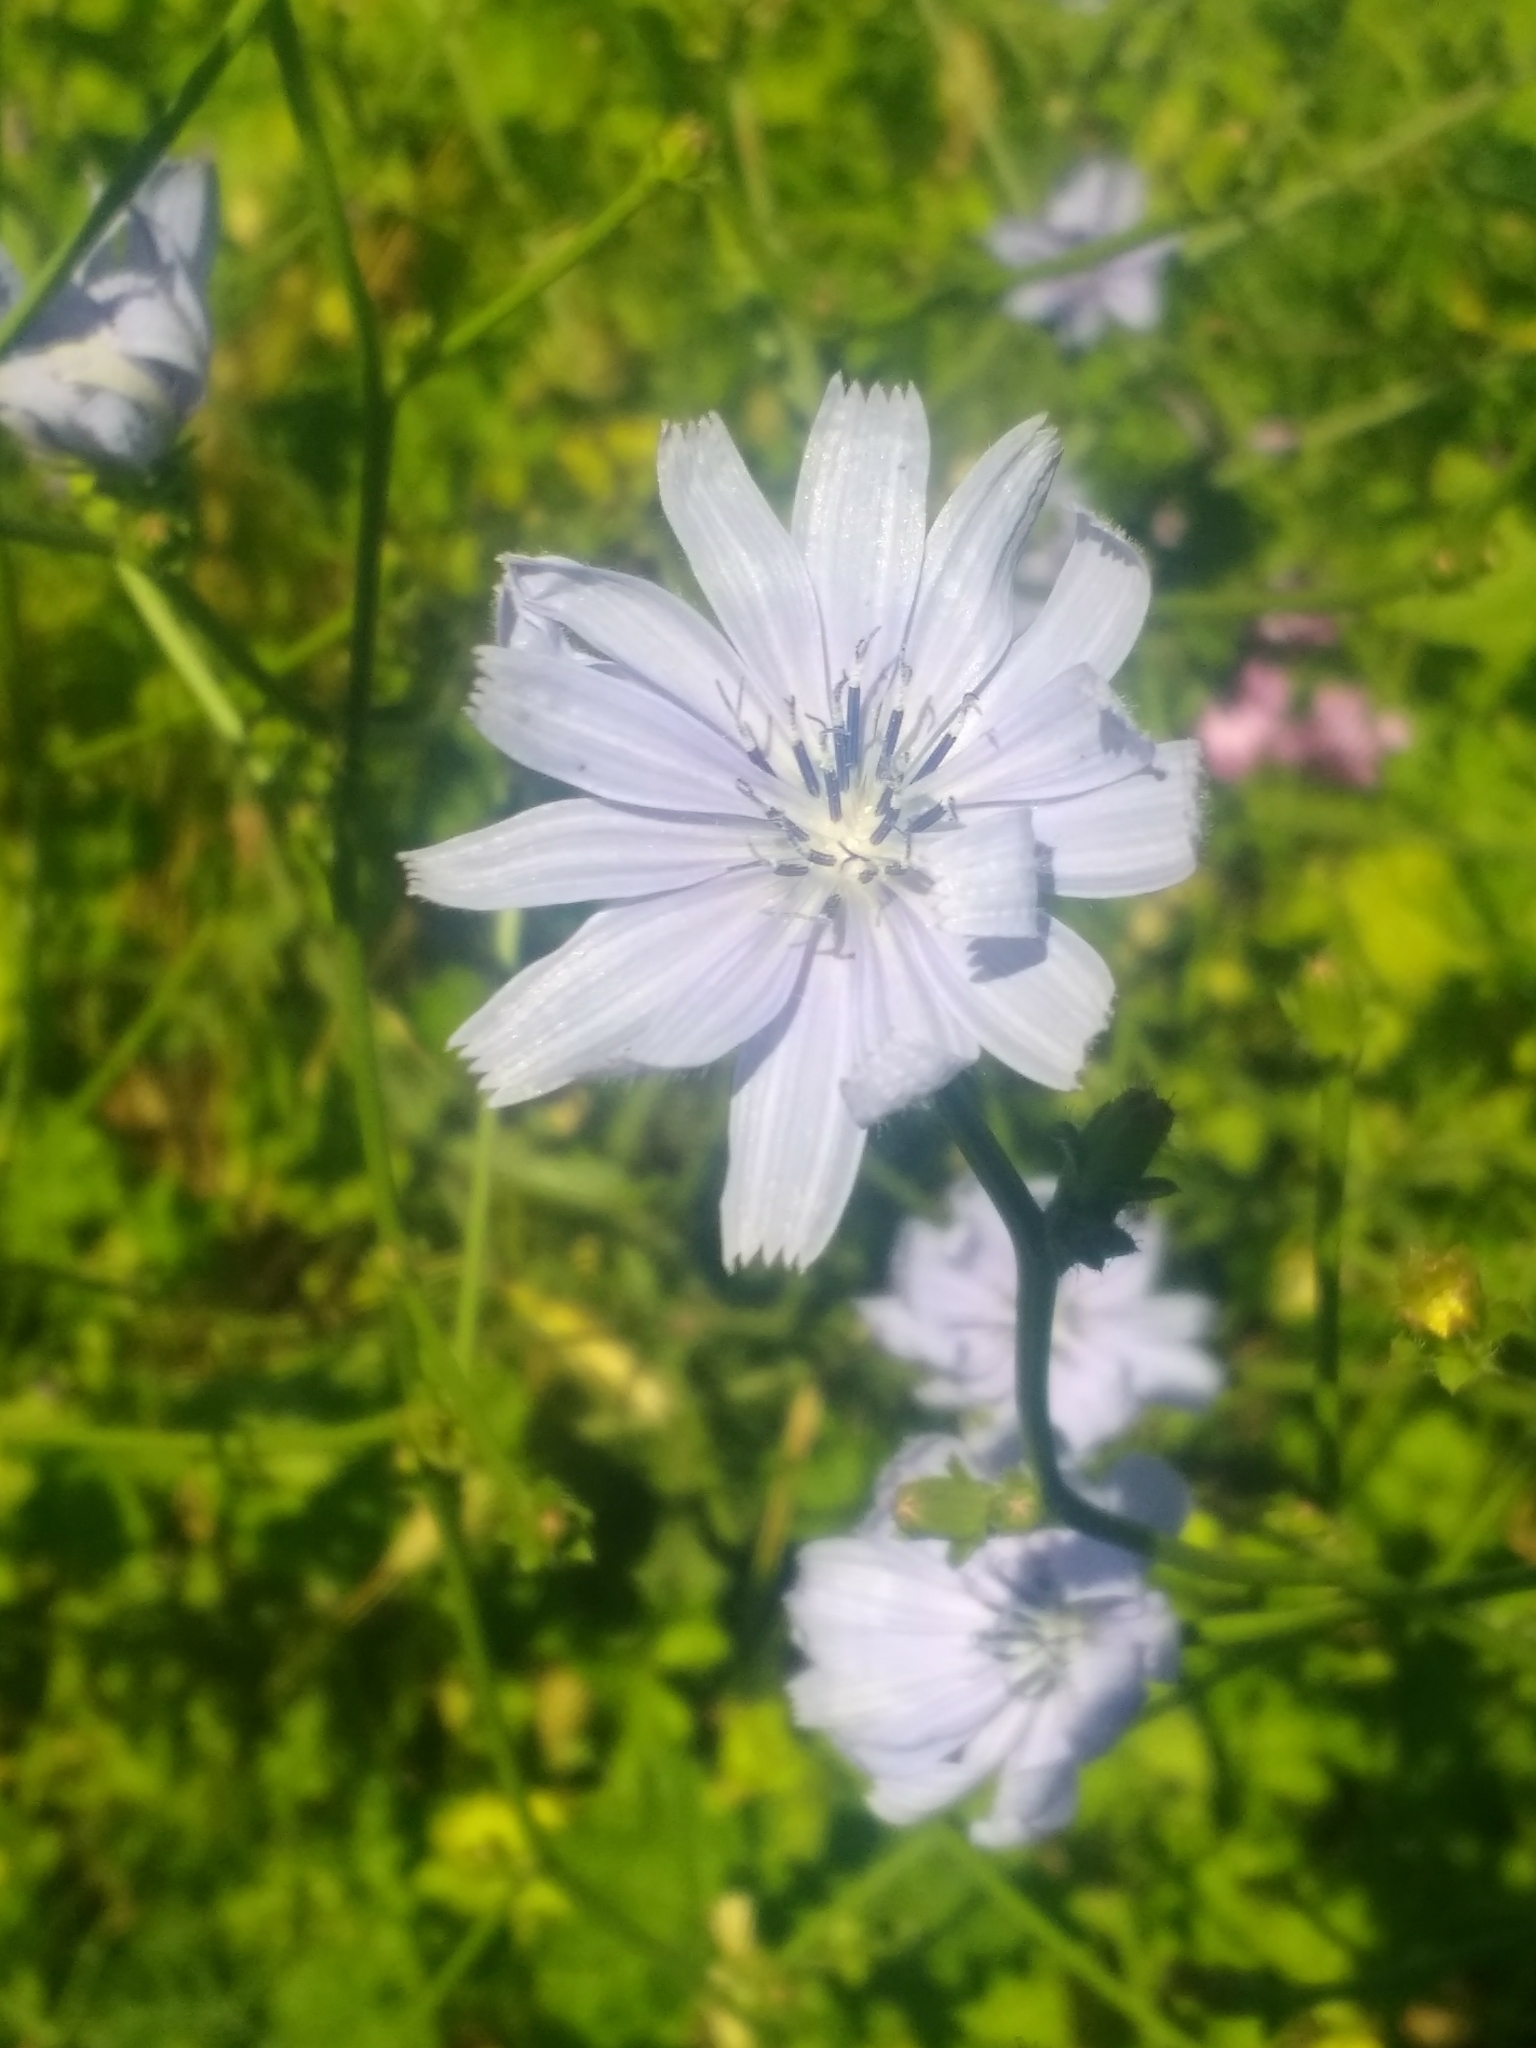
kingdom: Plantae
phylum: Tracheophyta
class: Magnoliopsida
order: Asterales
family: Asteraceae
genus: Cichorium
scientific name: Cichorium intybus
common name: Chicory
